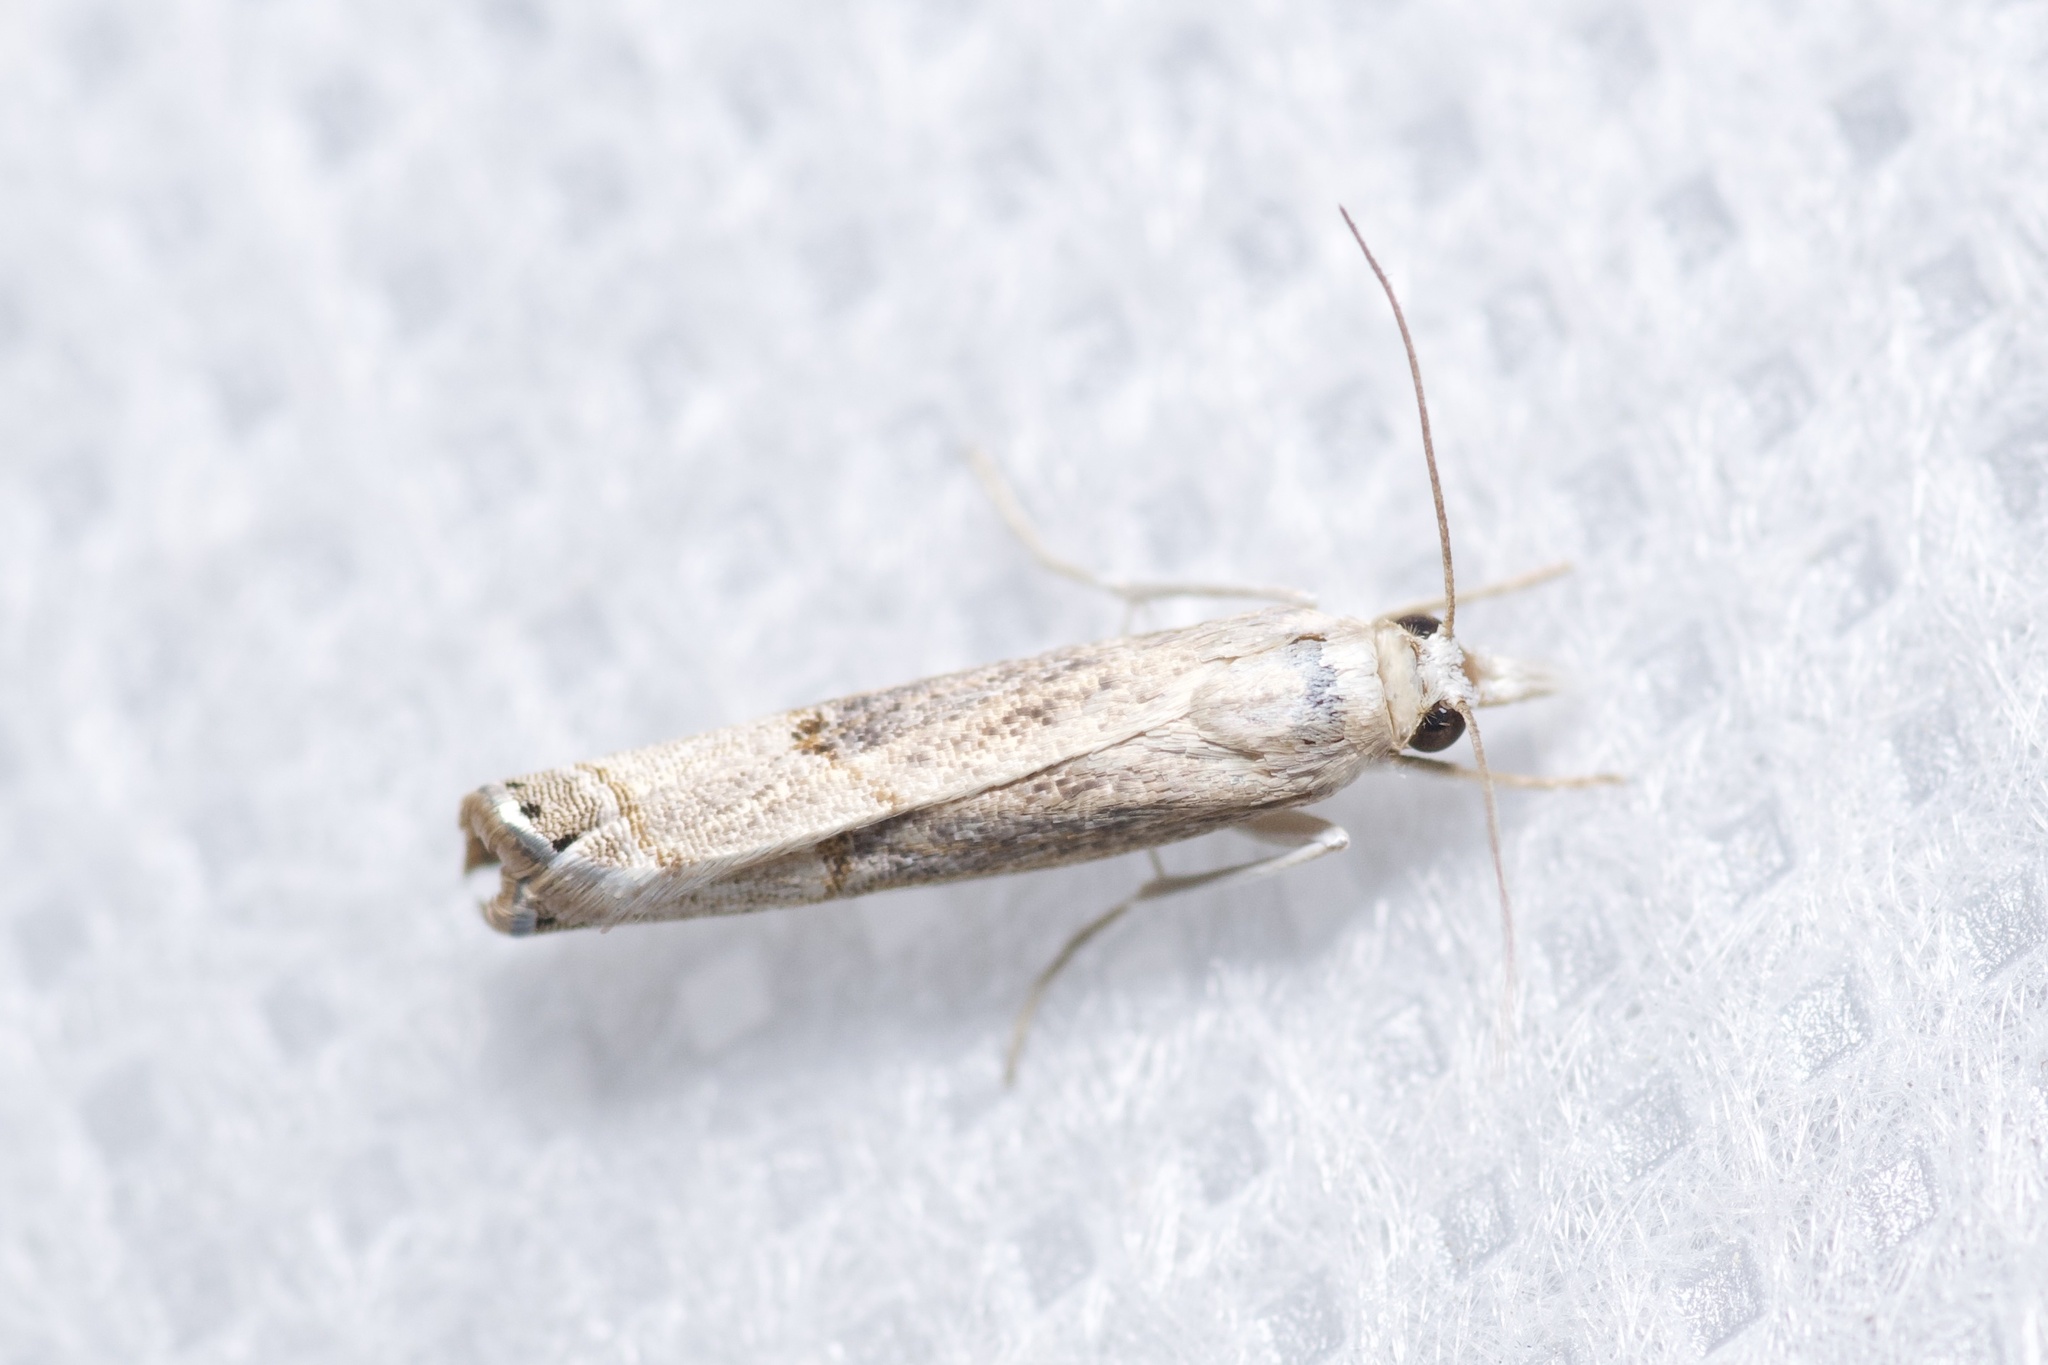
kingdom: Animalia
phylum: Arthropoda
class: Insecta
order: Lepidoptera
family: Crambidae
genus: Parapediasia
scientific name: Parapediasia teterellus
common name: Bluegrass webworm moth
